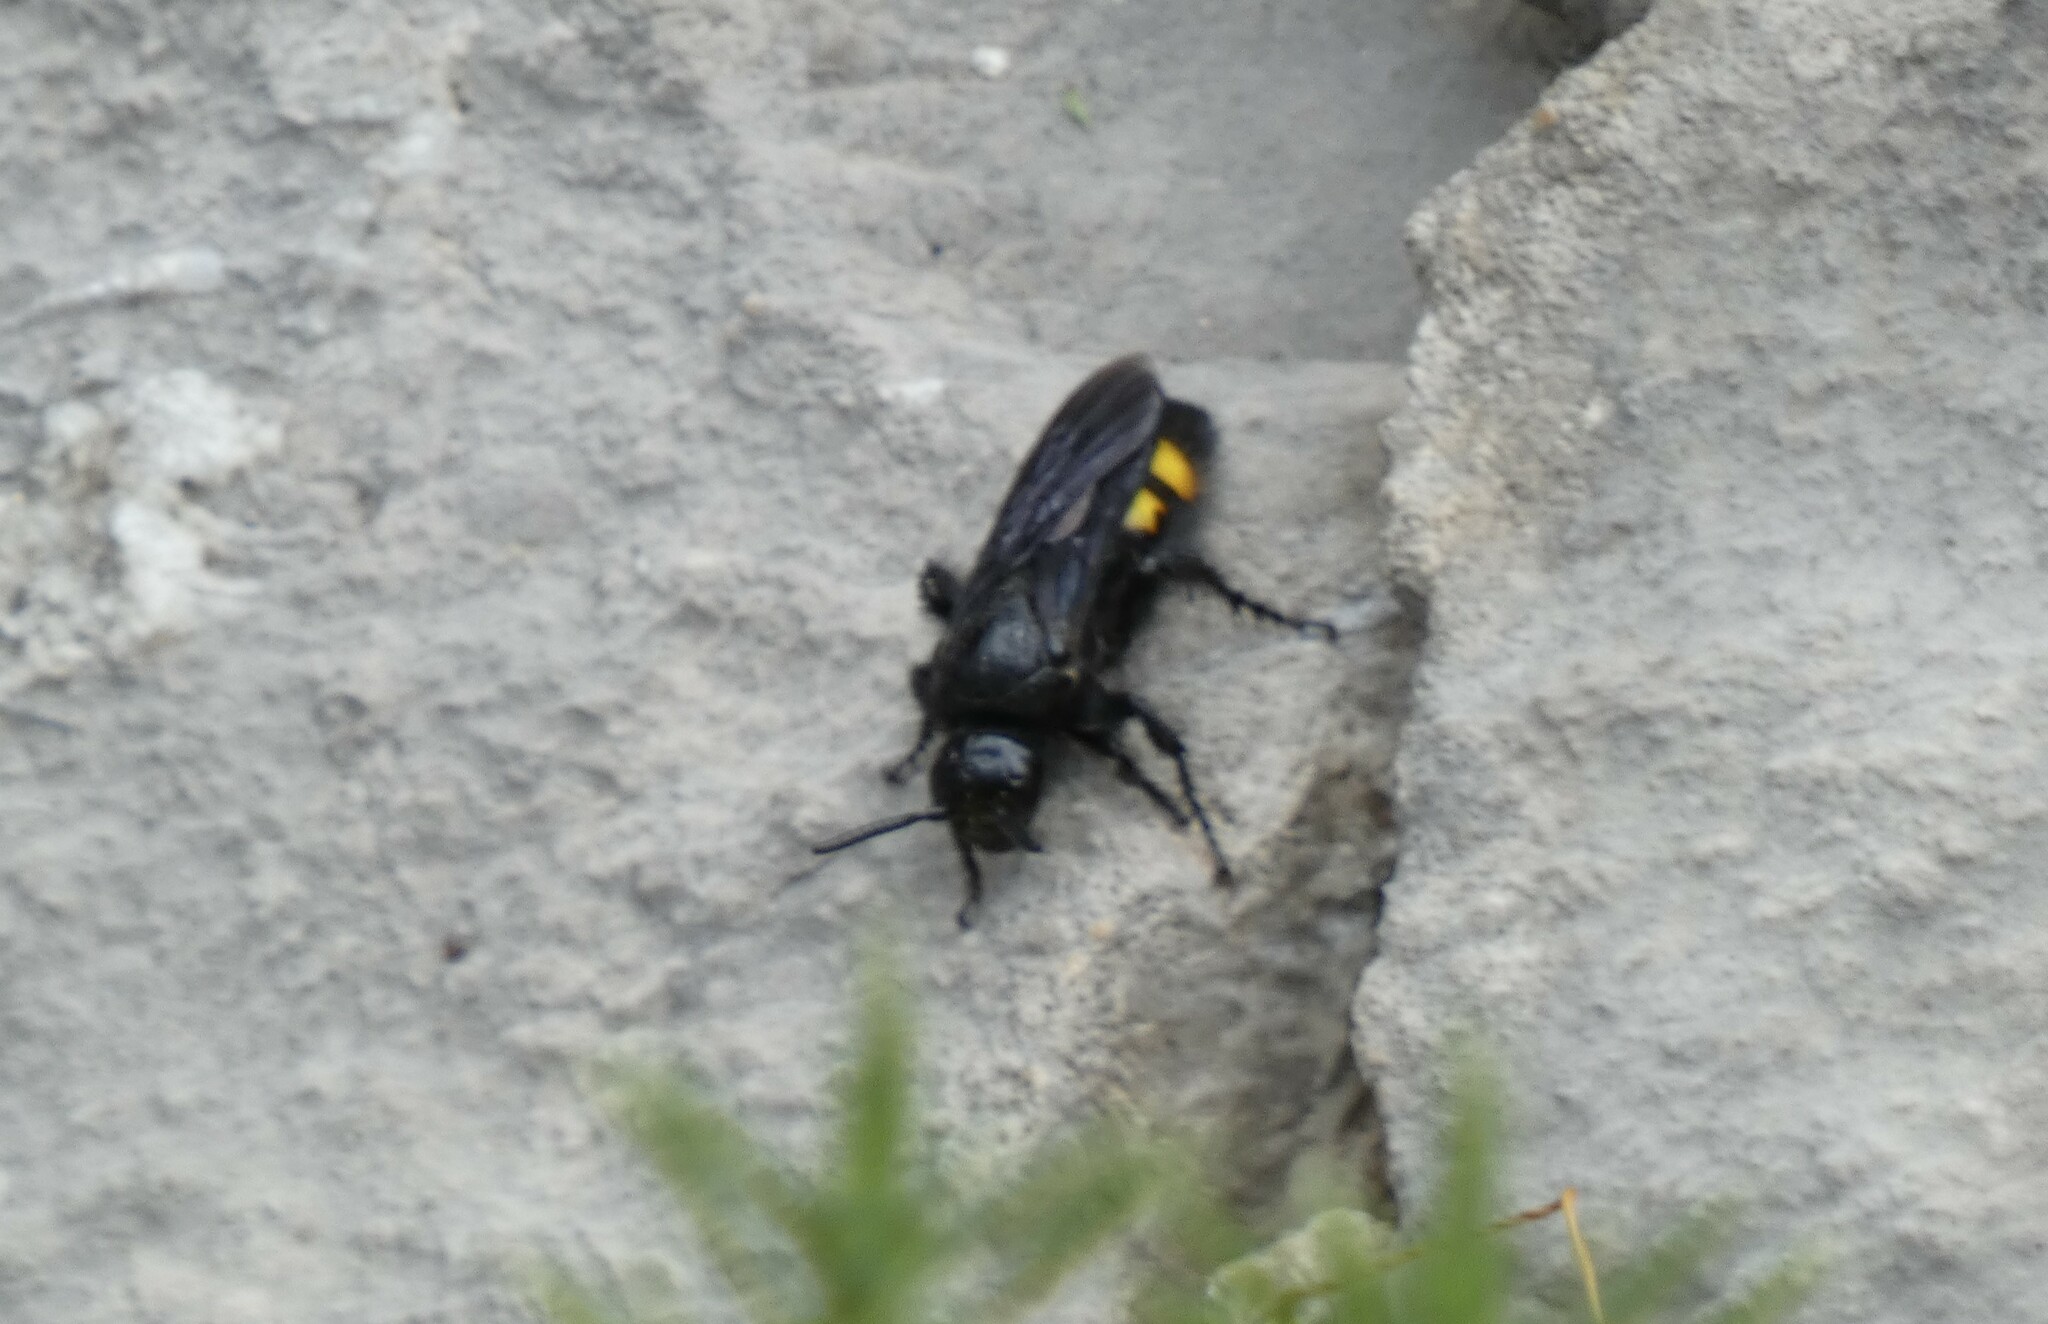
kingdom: Animalia
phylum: Arthropoda
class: Insecta
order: Hymenoptera
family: Scoliidae
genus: Scolia
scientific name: Scolia hirta
